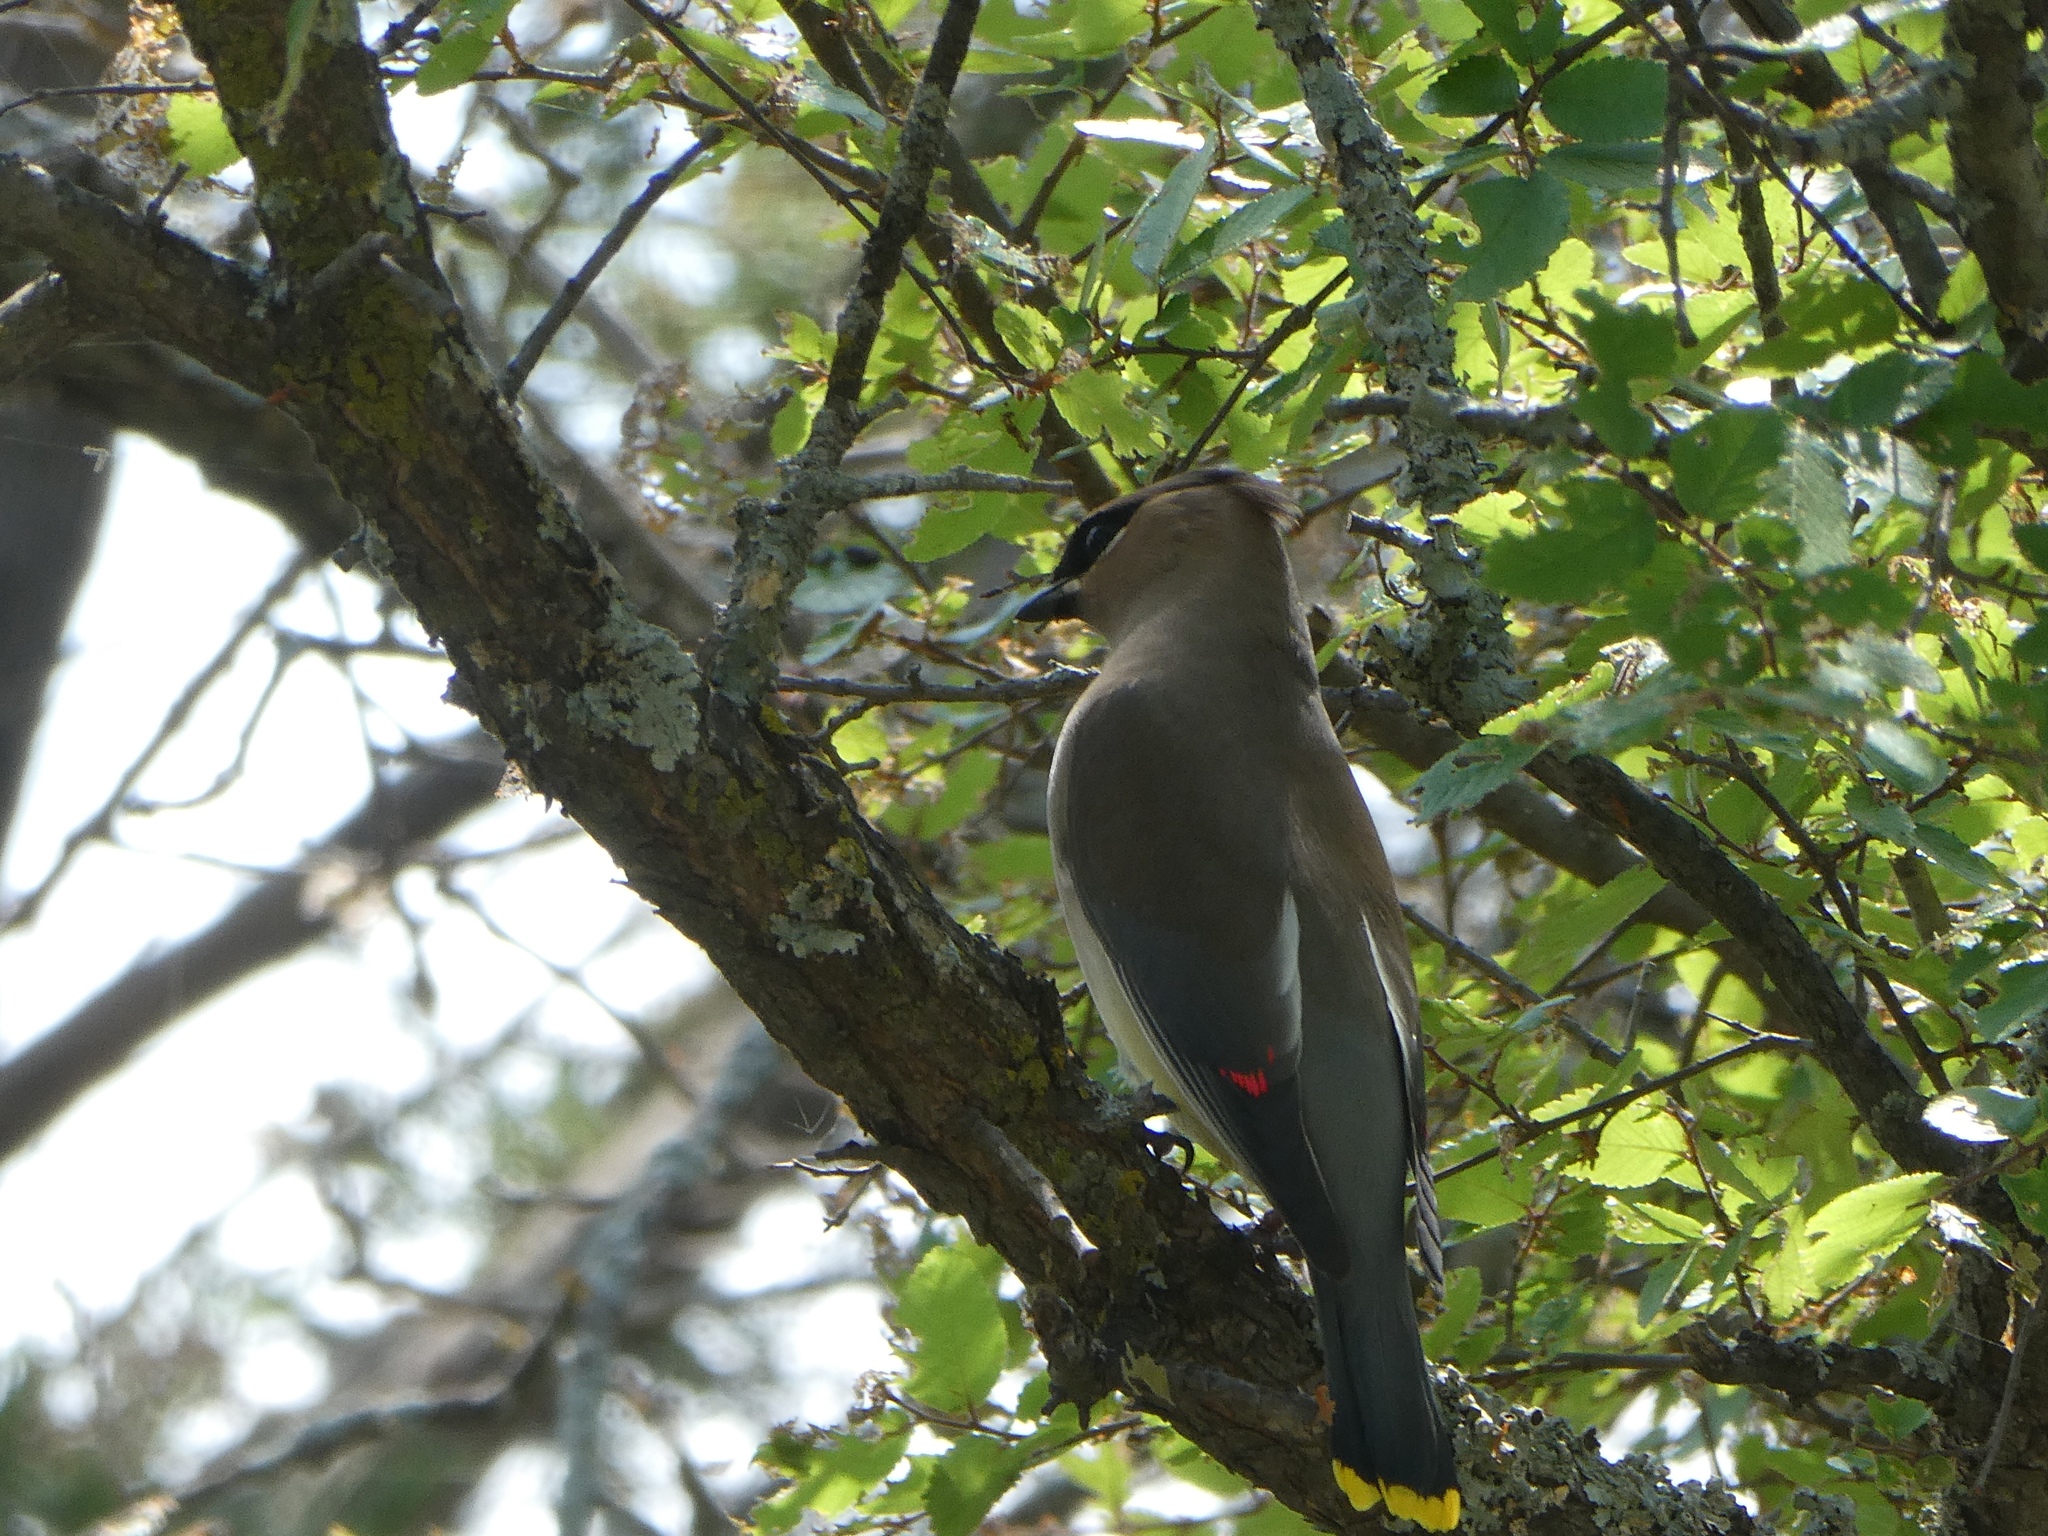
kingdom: Animalia
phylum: Chordata
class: Aves
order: Passeriformes
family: Bombycillidae
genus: Bombycilla
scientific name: Bombycilla cedrorum
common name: Cedar waxwing
